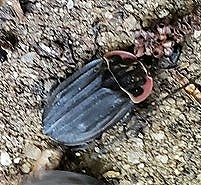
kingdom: Animalia
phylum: Arthropoda
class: Insecta
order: Coleoptera
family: Staphylinidae
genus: Oiceoptoma
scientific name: Oiceoptoma noveboracense
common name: Margined carrion beetle
